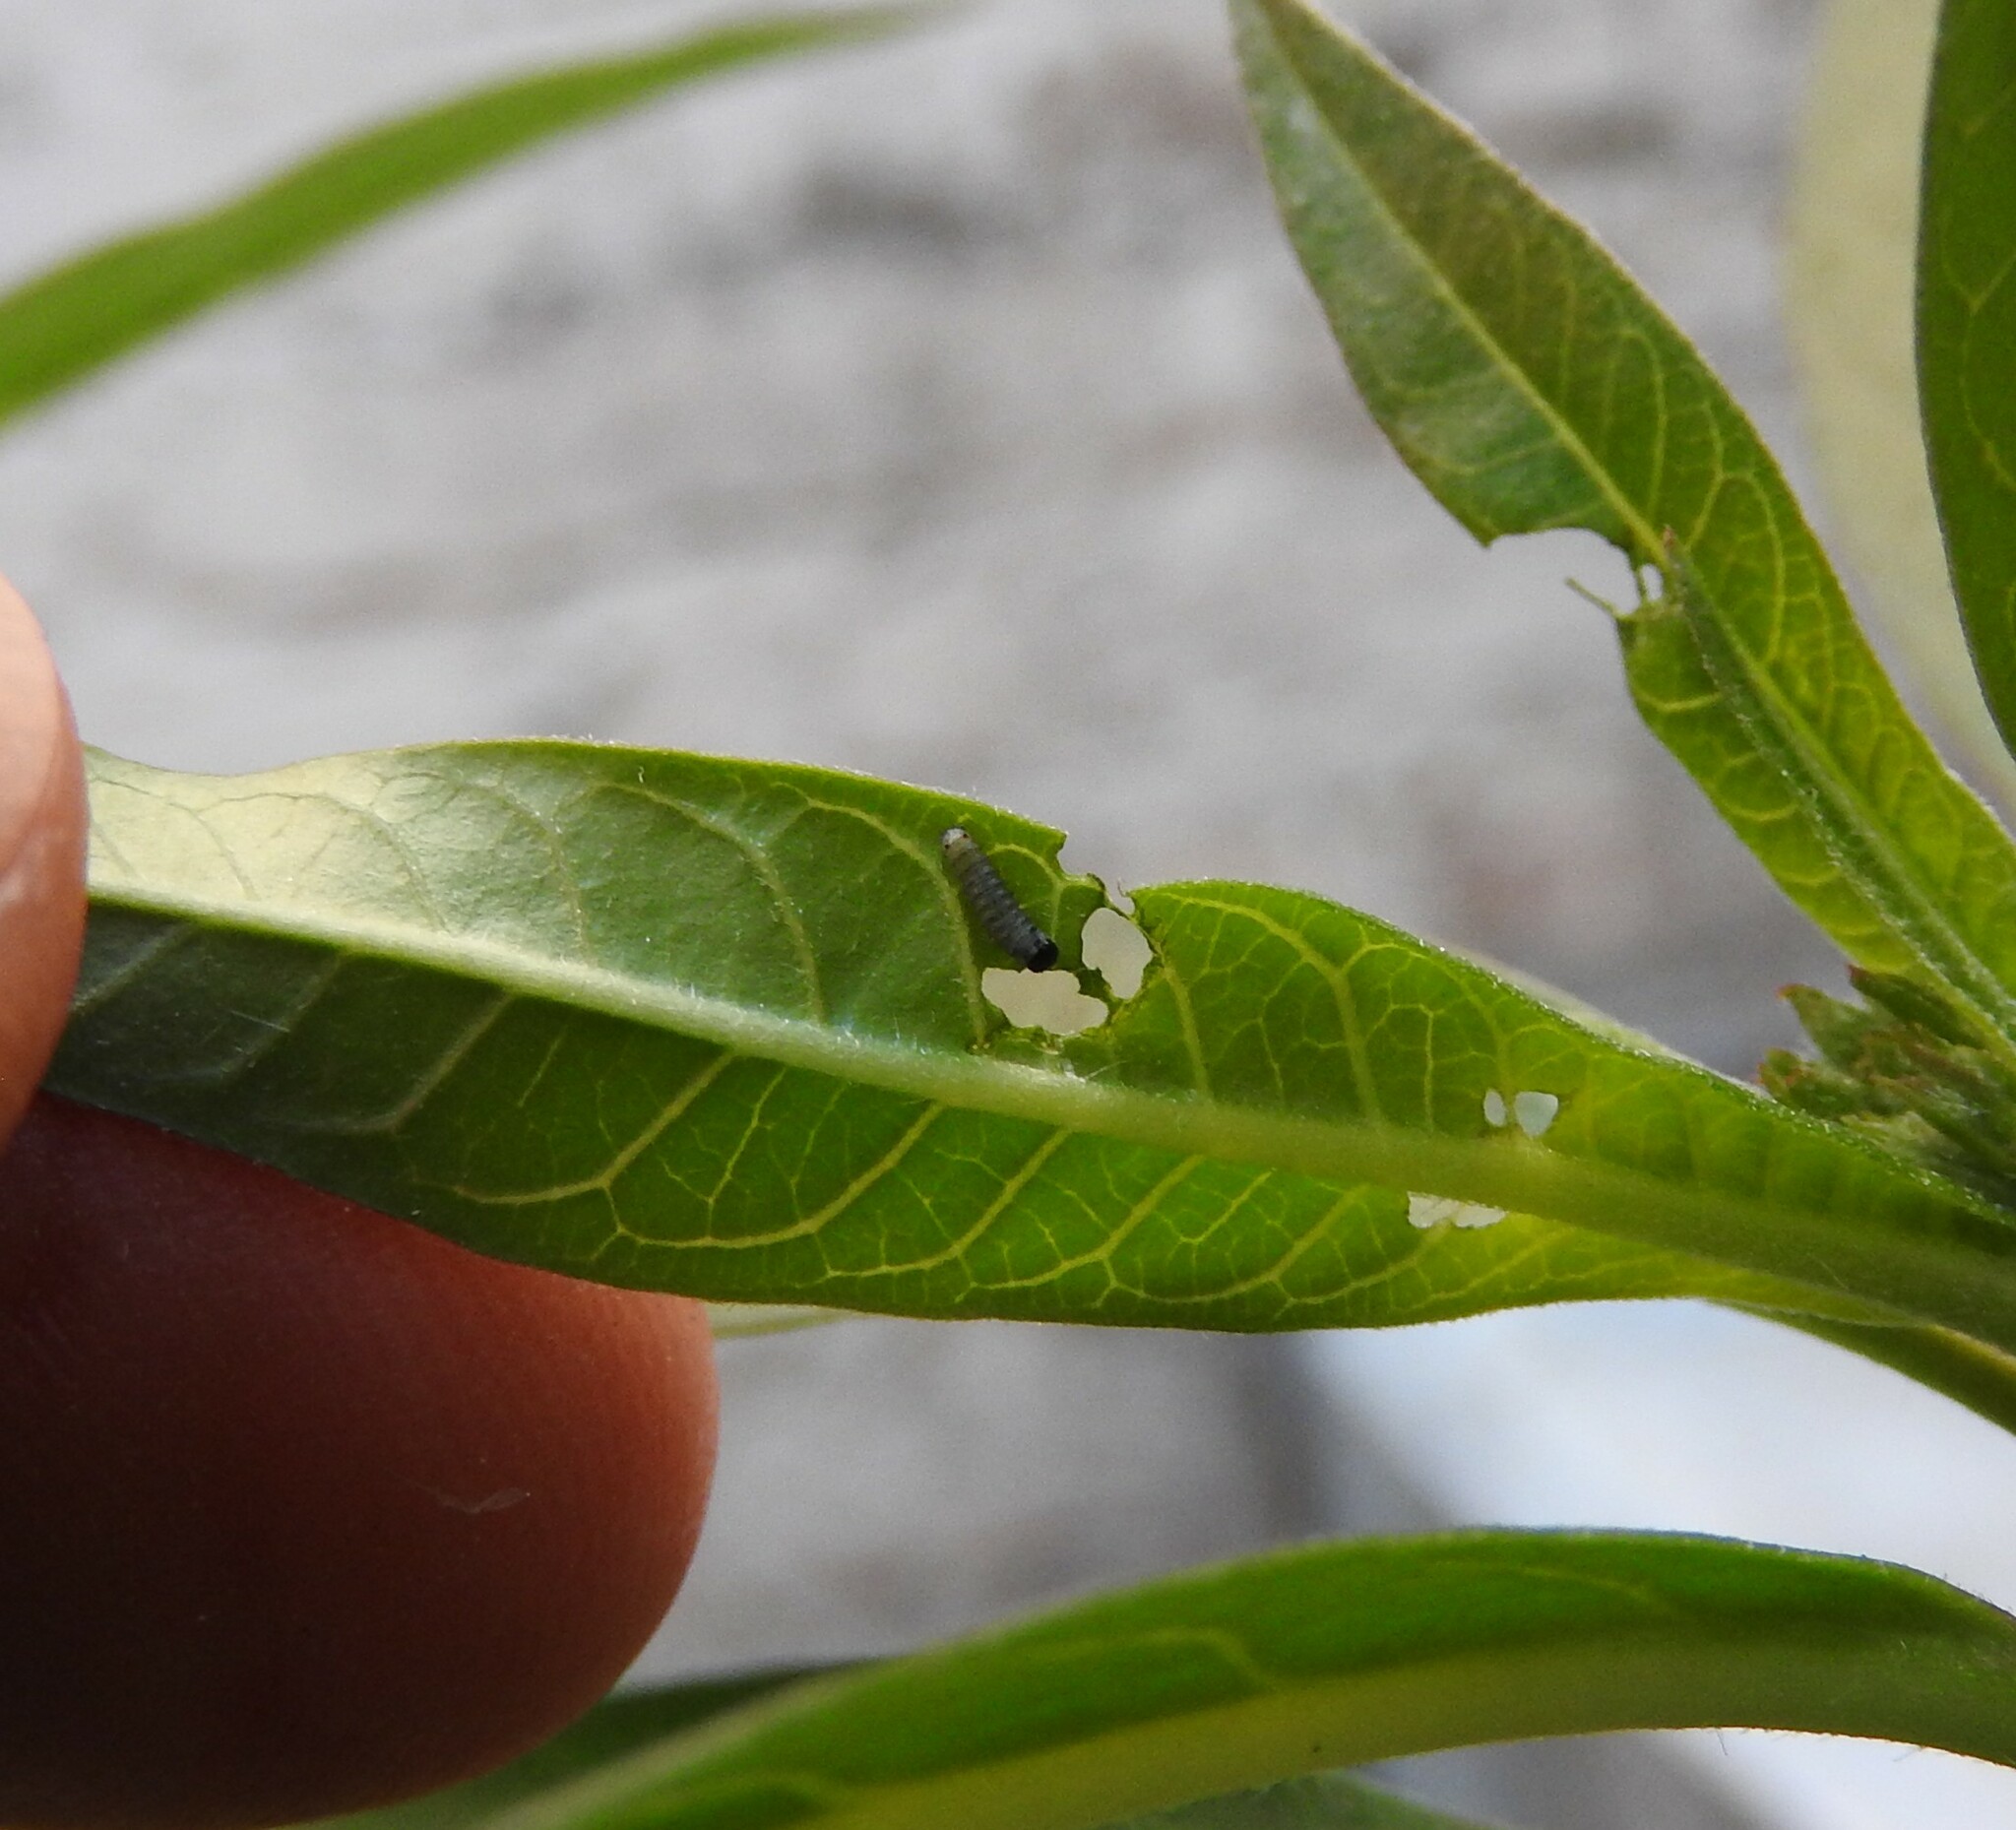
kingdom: Animalia
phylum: Arthropoda
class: Insecta
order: Lepidoptera
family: Nymphalidae
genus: Danaus
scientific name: Danaus plexippus
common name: Monarch
